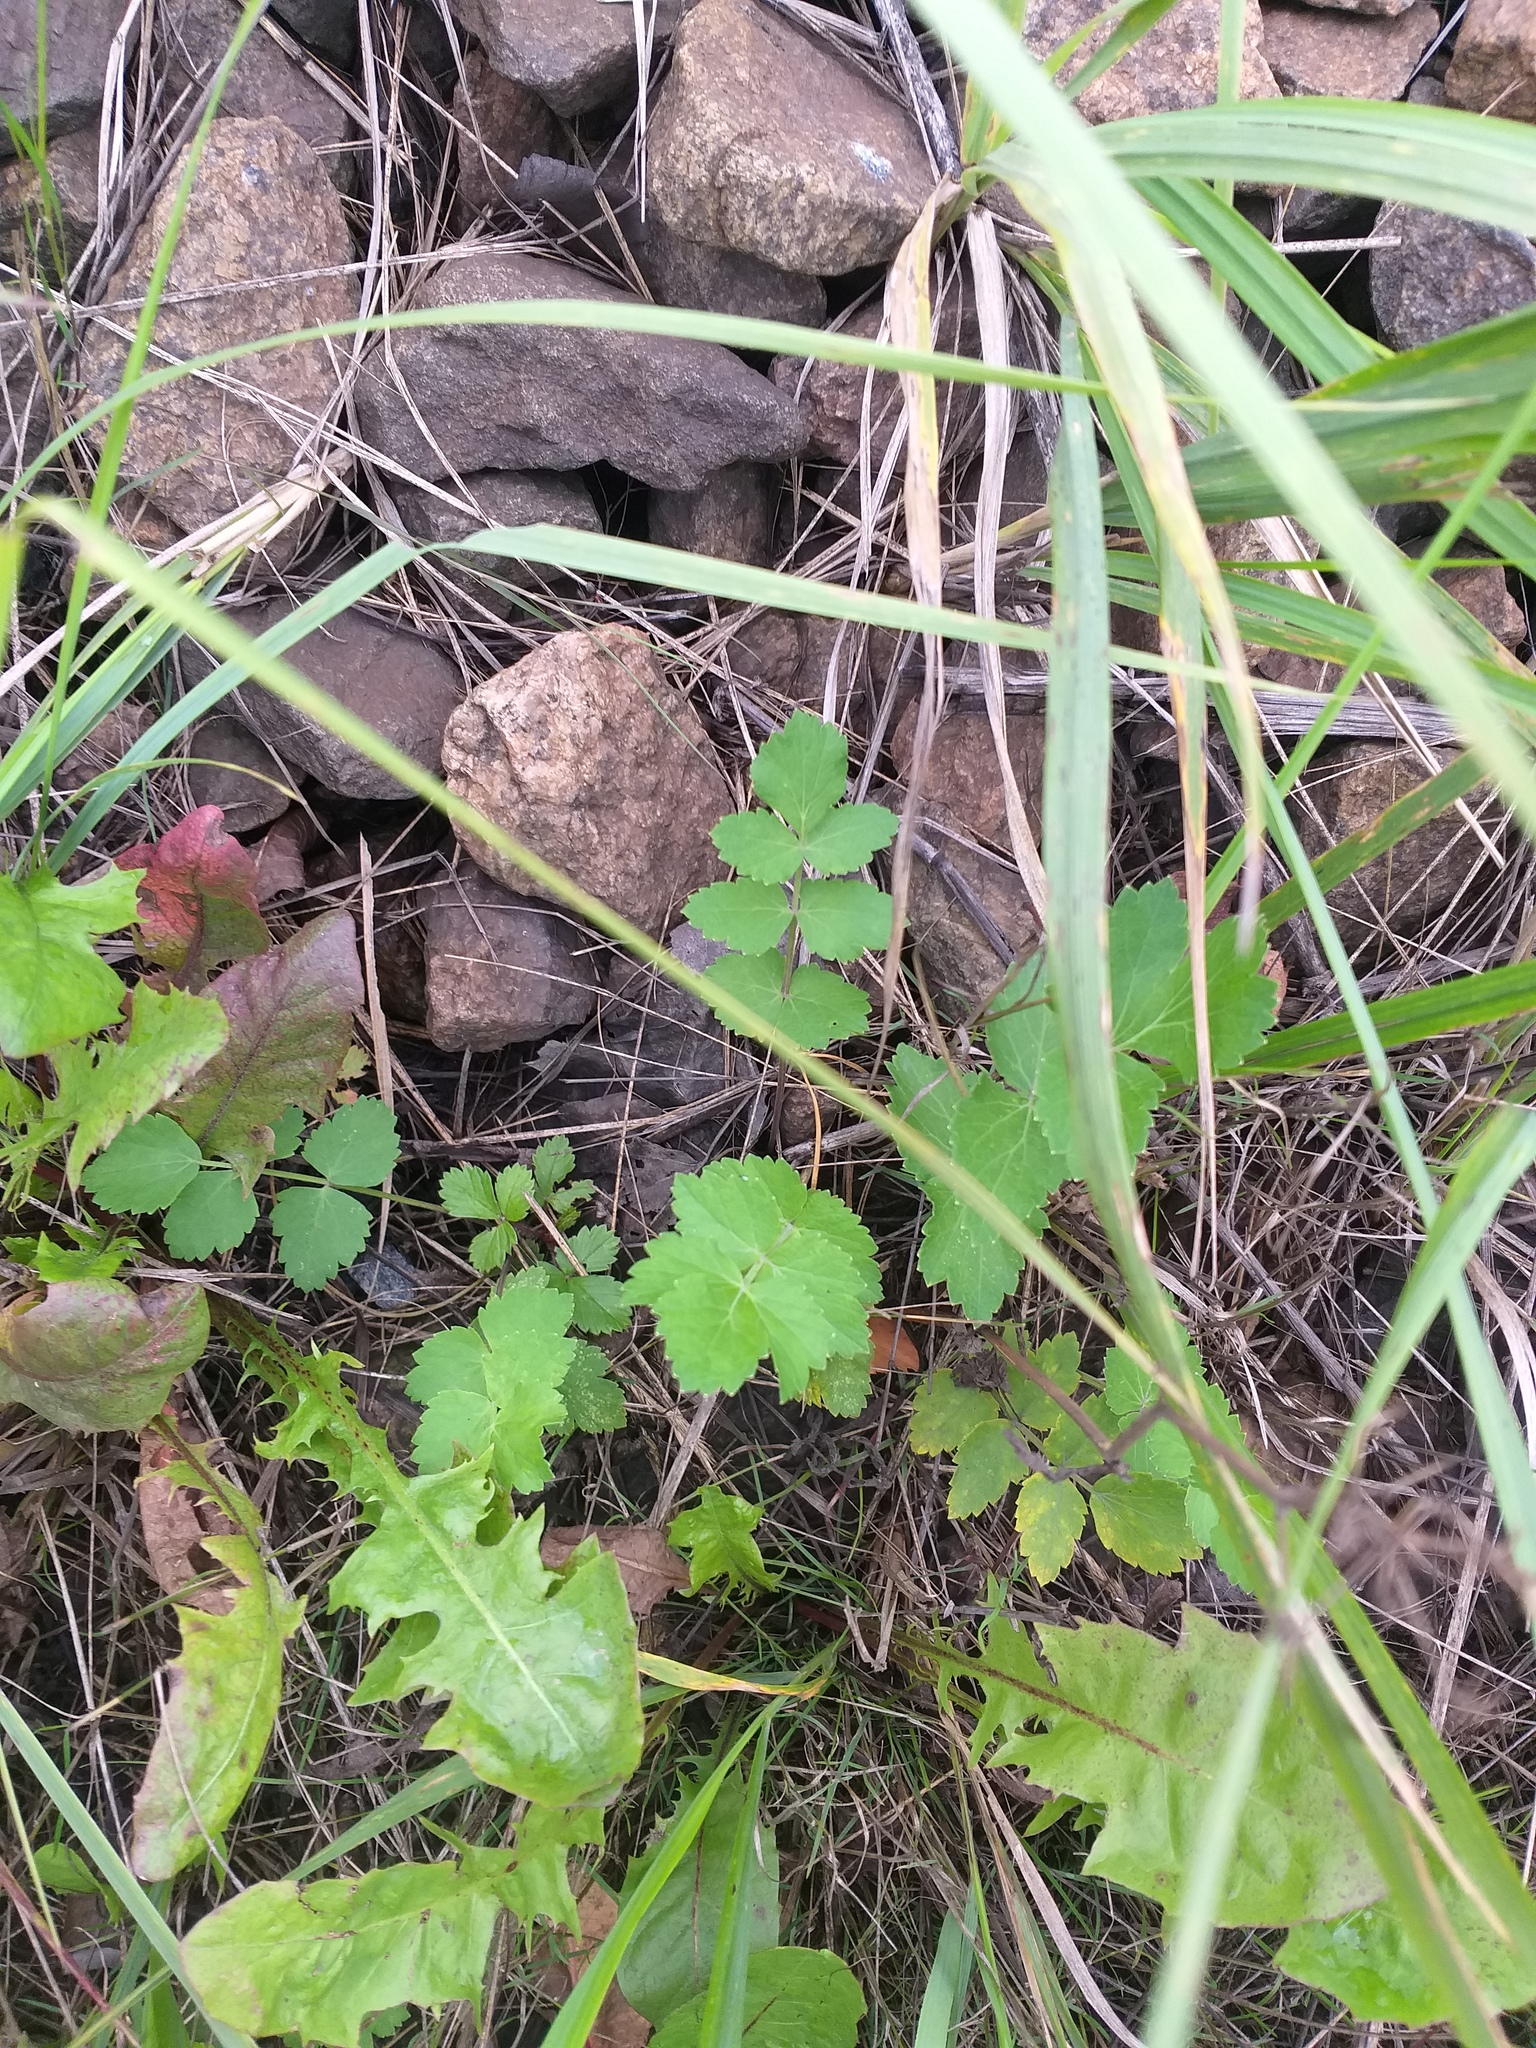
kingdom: Plantae
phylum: Tracheophyta
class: Magnoliopsida
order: Apiales
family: Apiaceae
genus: Pimpinella
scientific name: Pimpinella saxifraga
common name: Burnet-saxifrage
